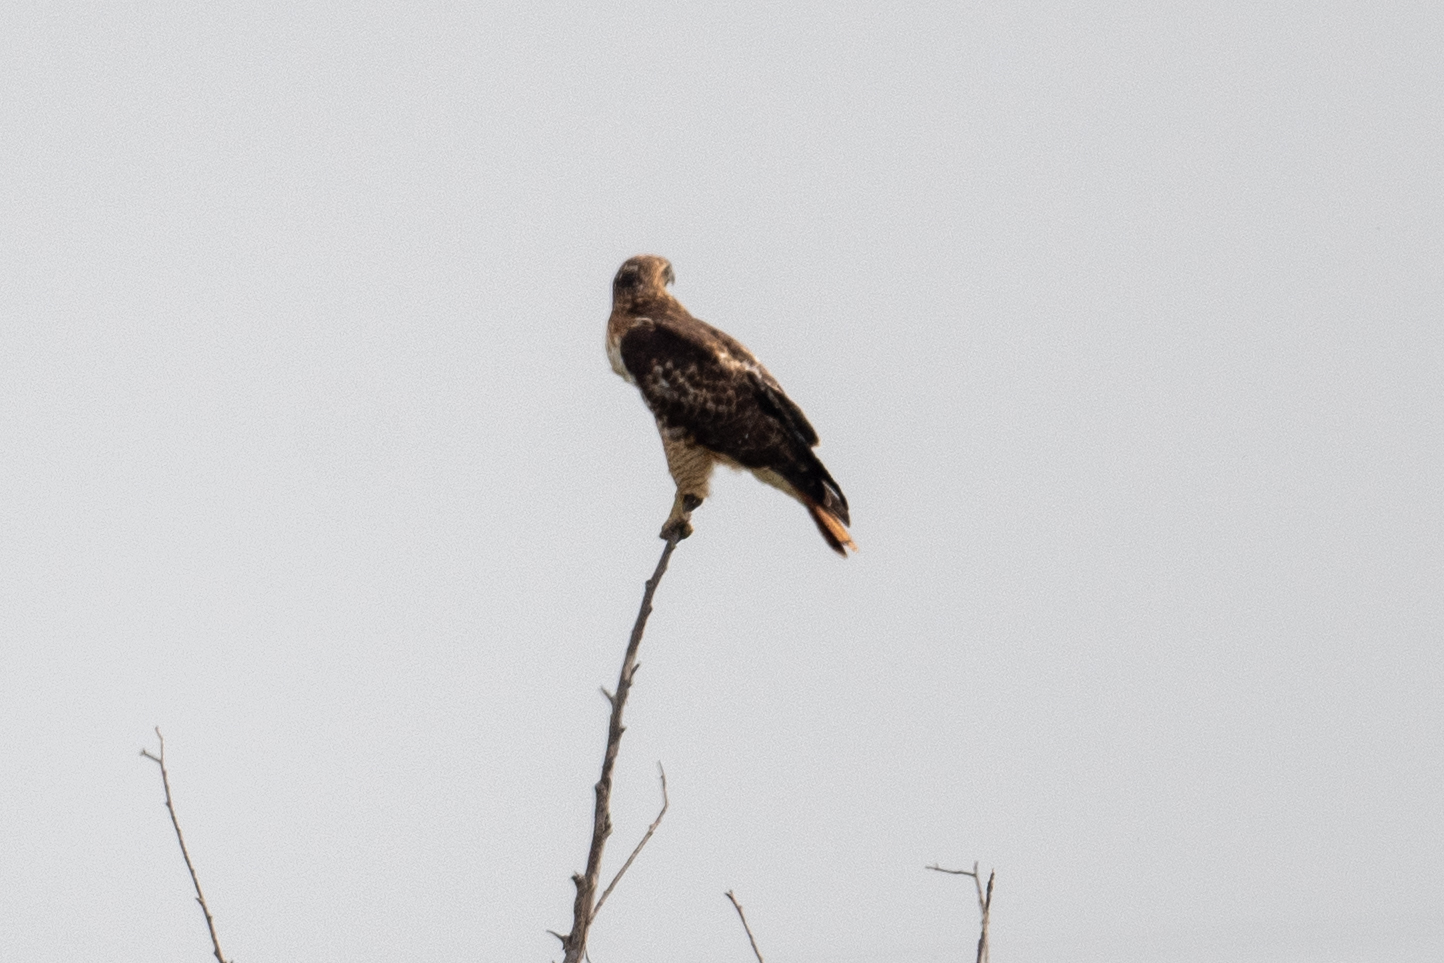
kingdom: Animalia
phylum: Chordata
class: Aves
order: Accipitriformes
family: Accipitridae
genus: Buteo
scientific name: Buteo jamaicensis
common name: Red-tailed hawk
